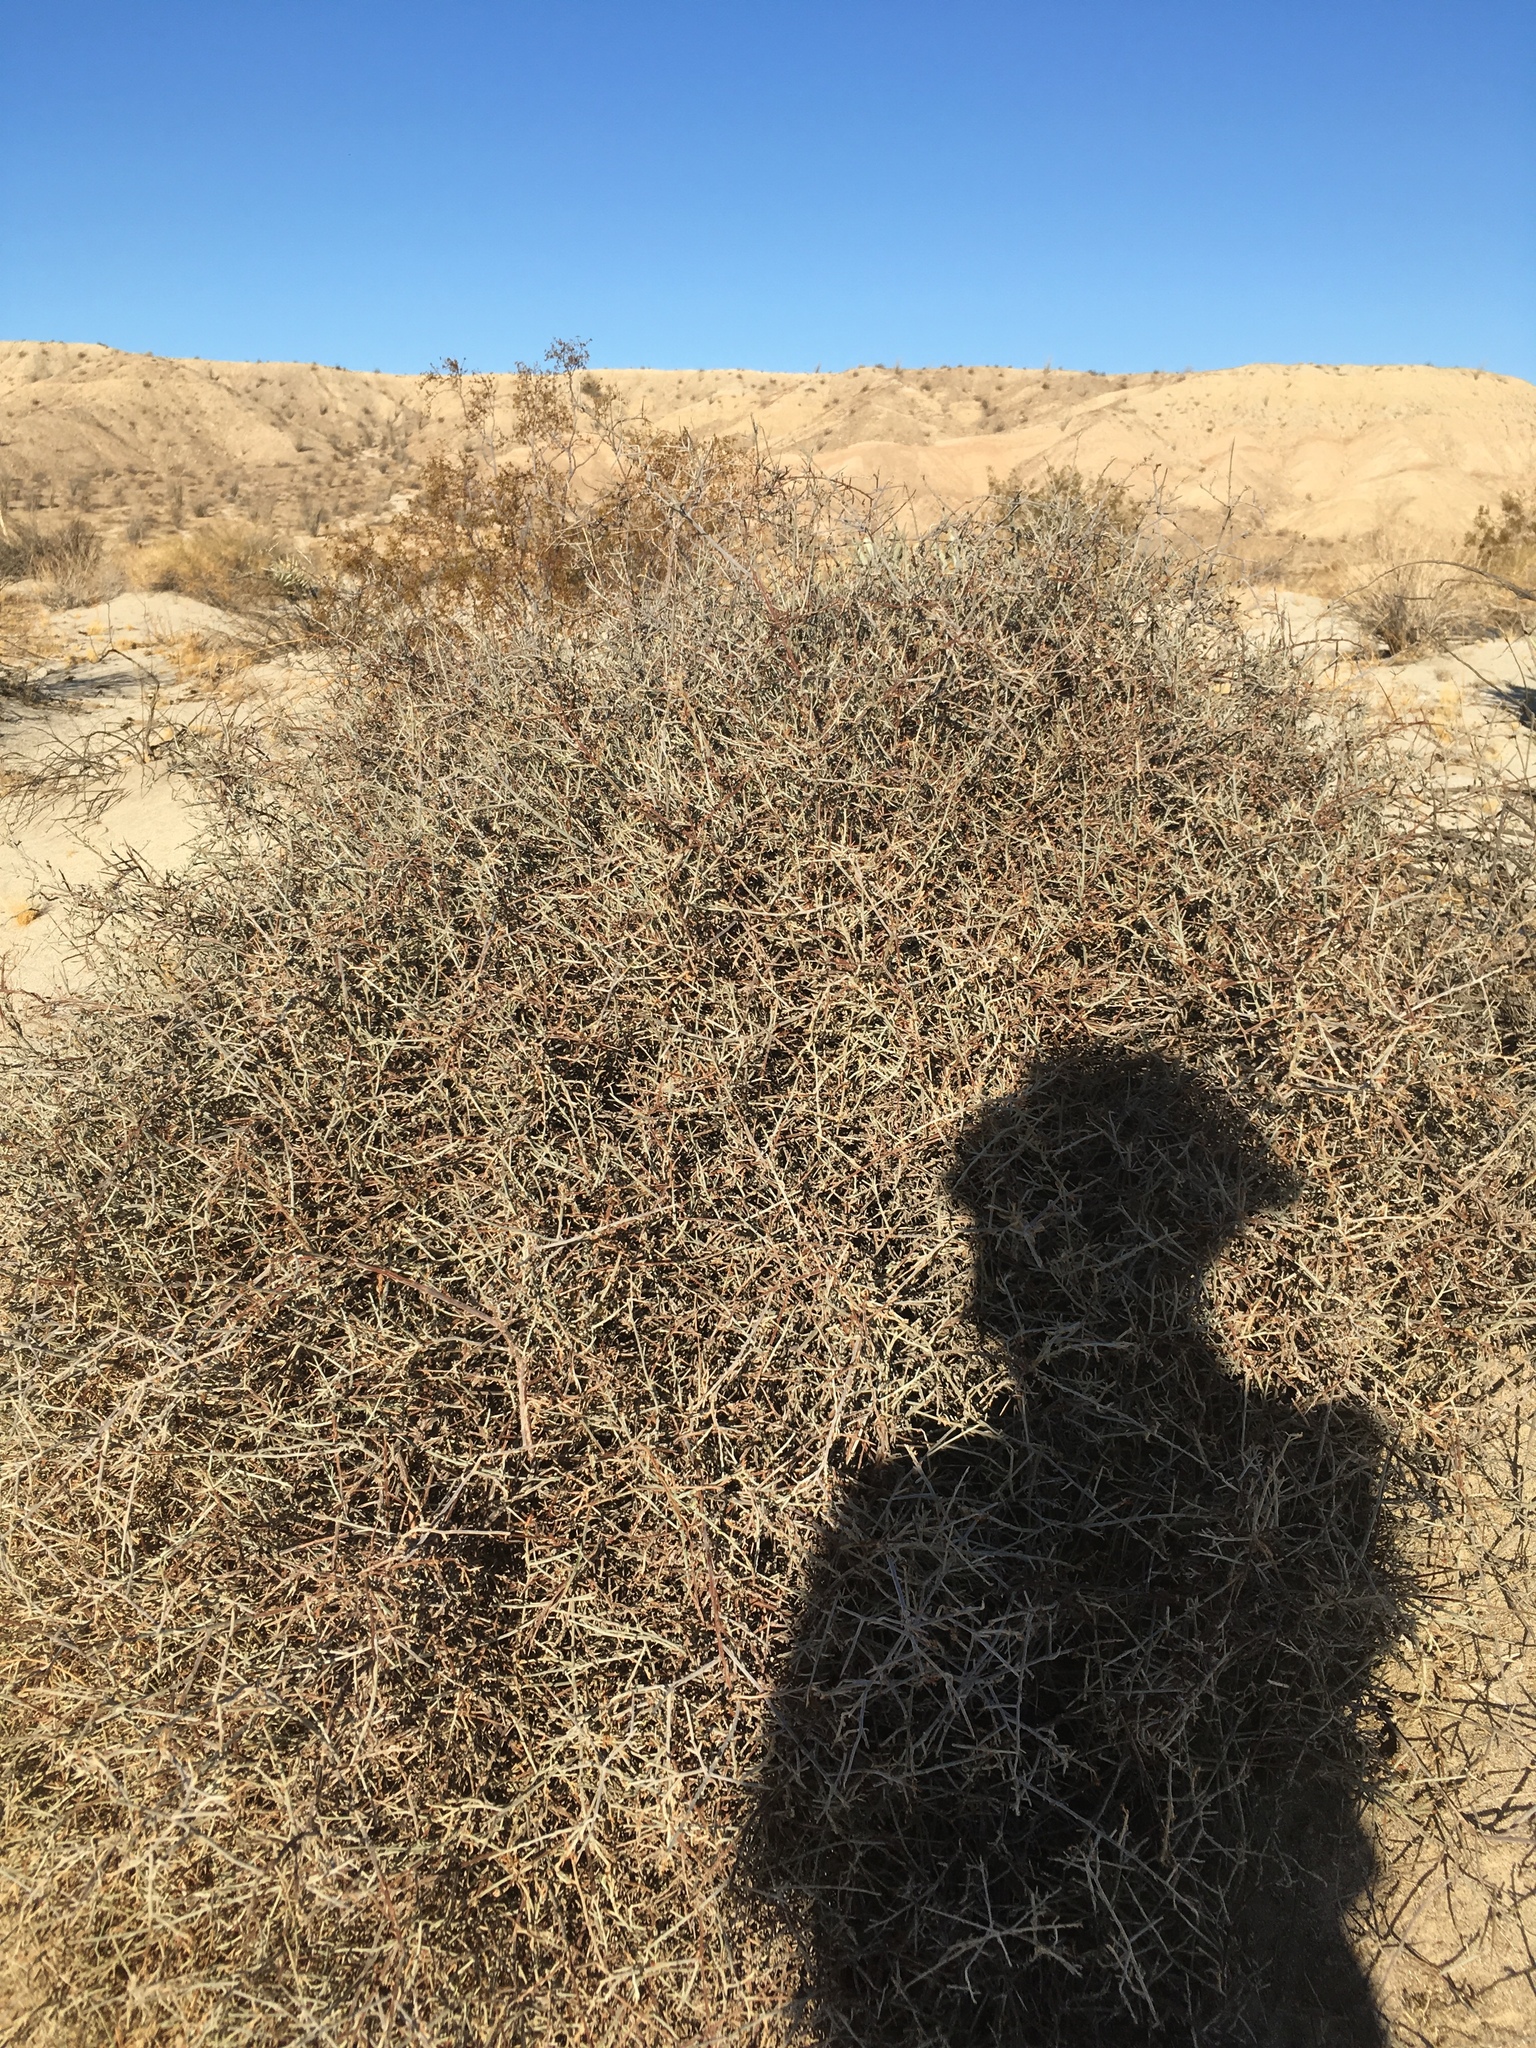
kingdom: Plantae
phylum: Tracheophyta
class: Magnoliopsida
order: Zygophyllales
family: Krameriaceae
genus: Krameria
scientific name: Krameria bicolor
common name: White ratany
